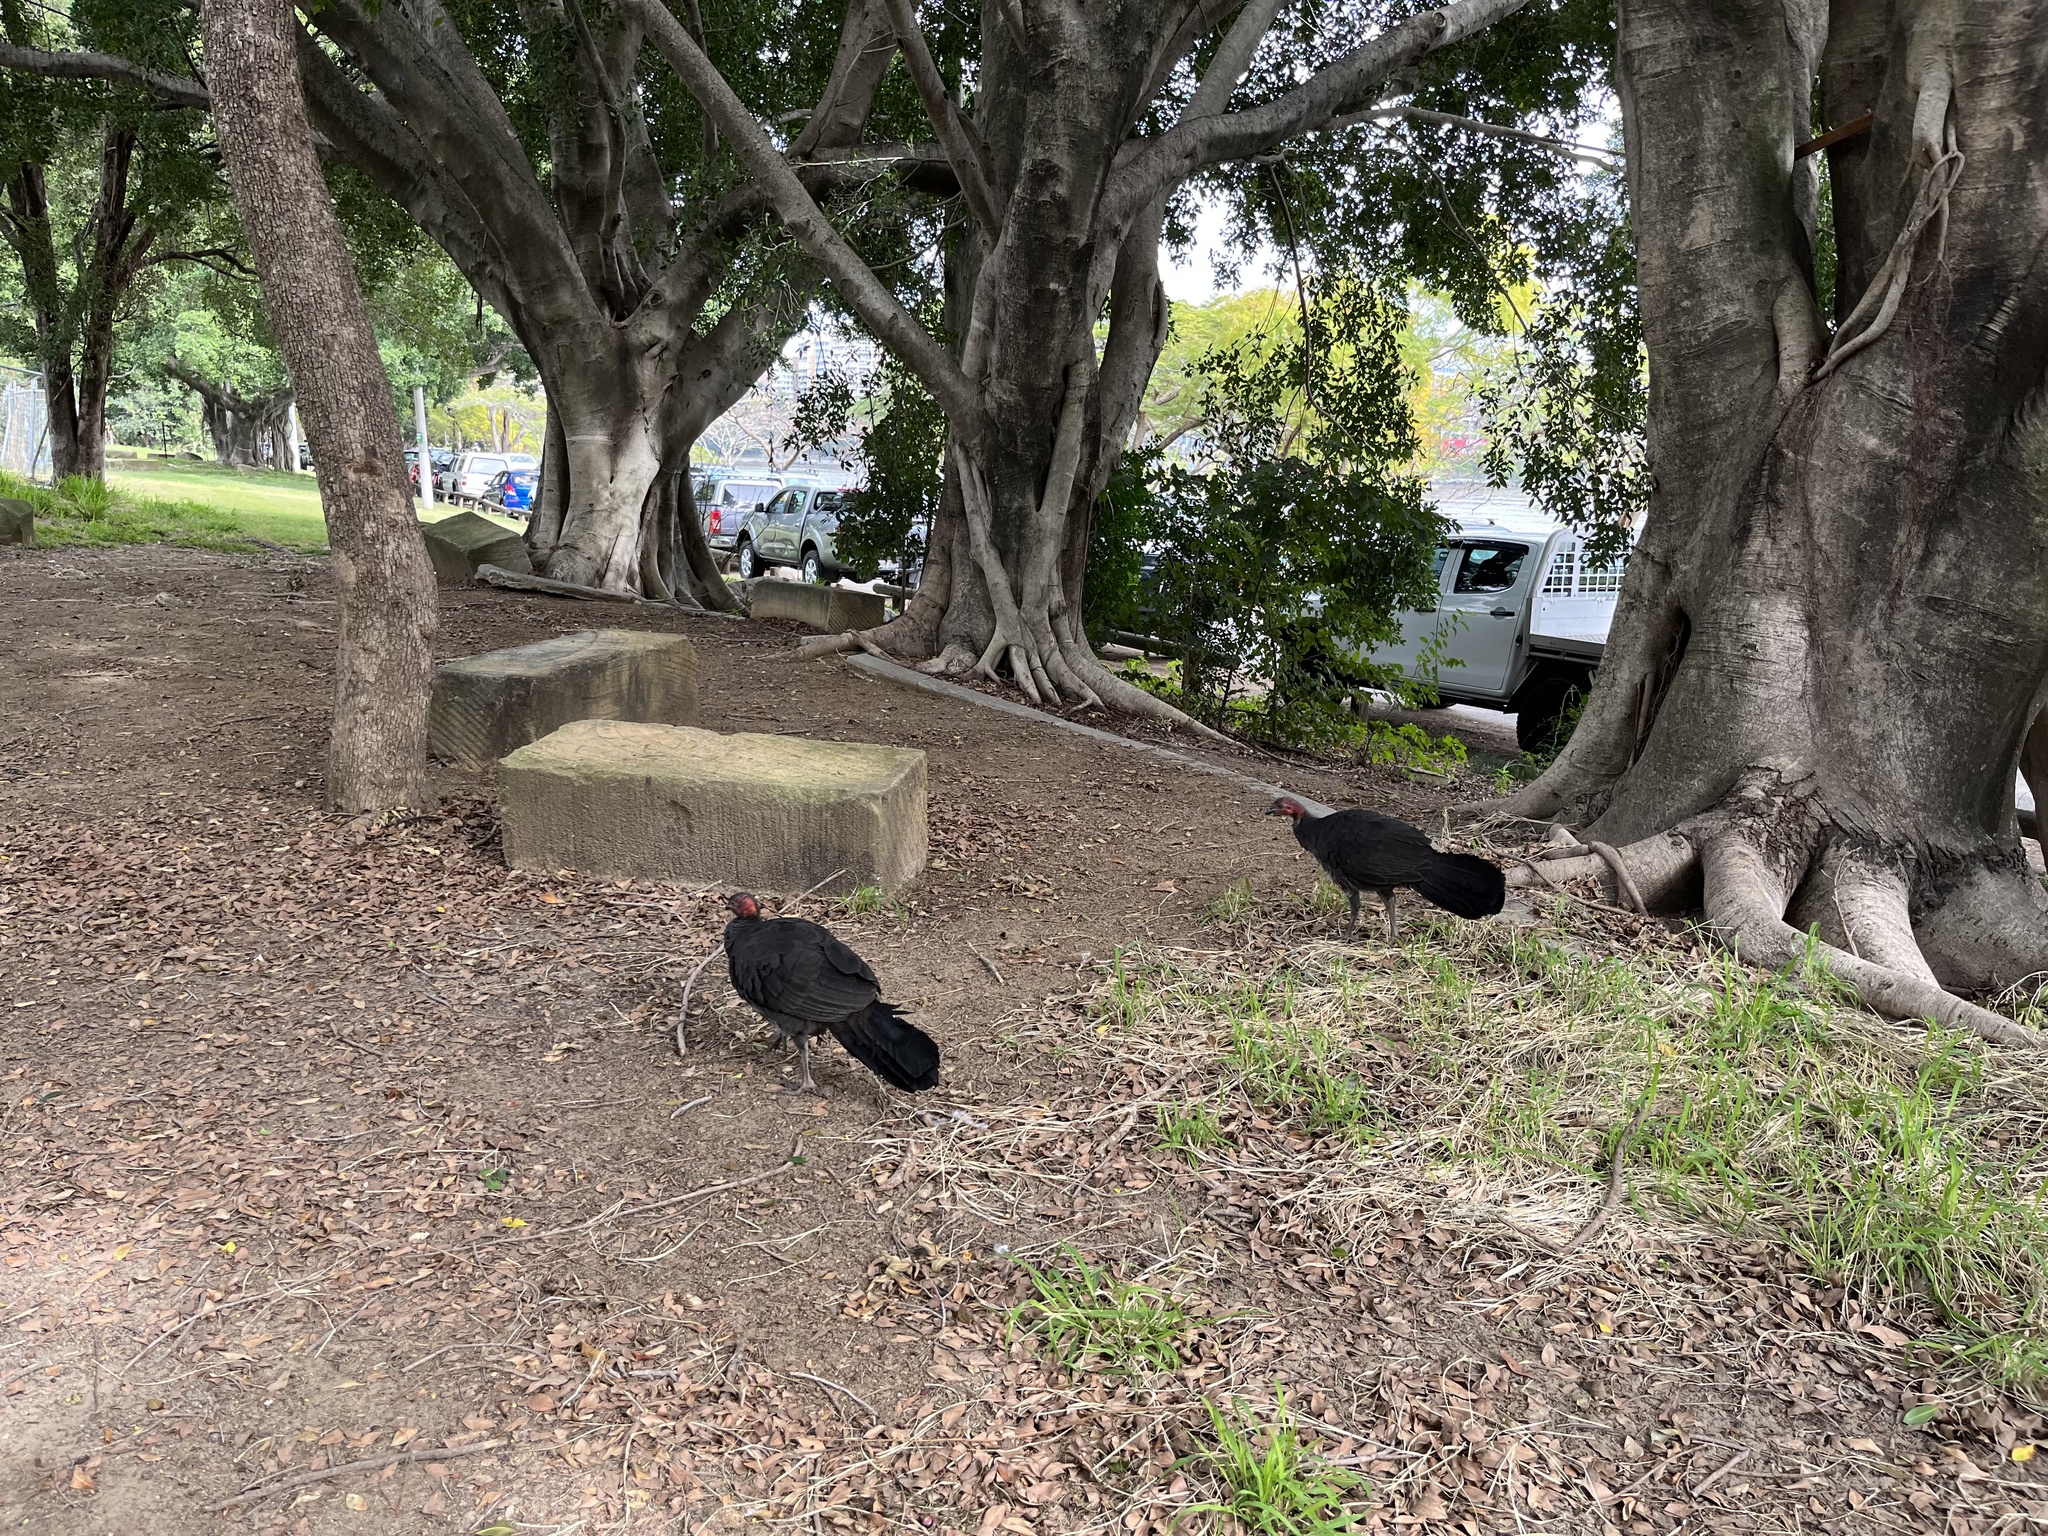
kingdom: Animalia
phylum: Chordata
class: Aves
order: Galliformes
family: Megapodiidae
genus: Alectura
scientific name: Alectura lathami
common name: Australian brushturkey
